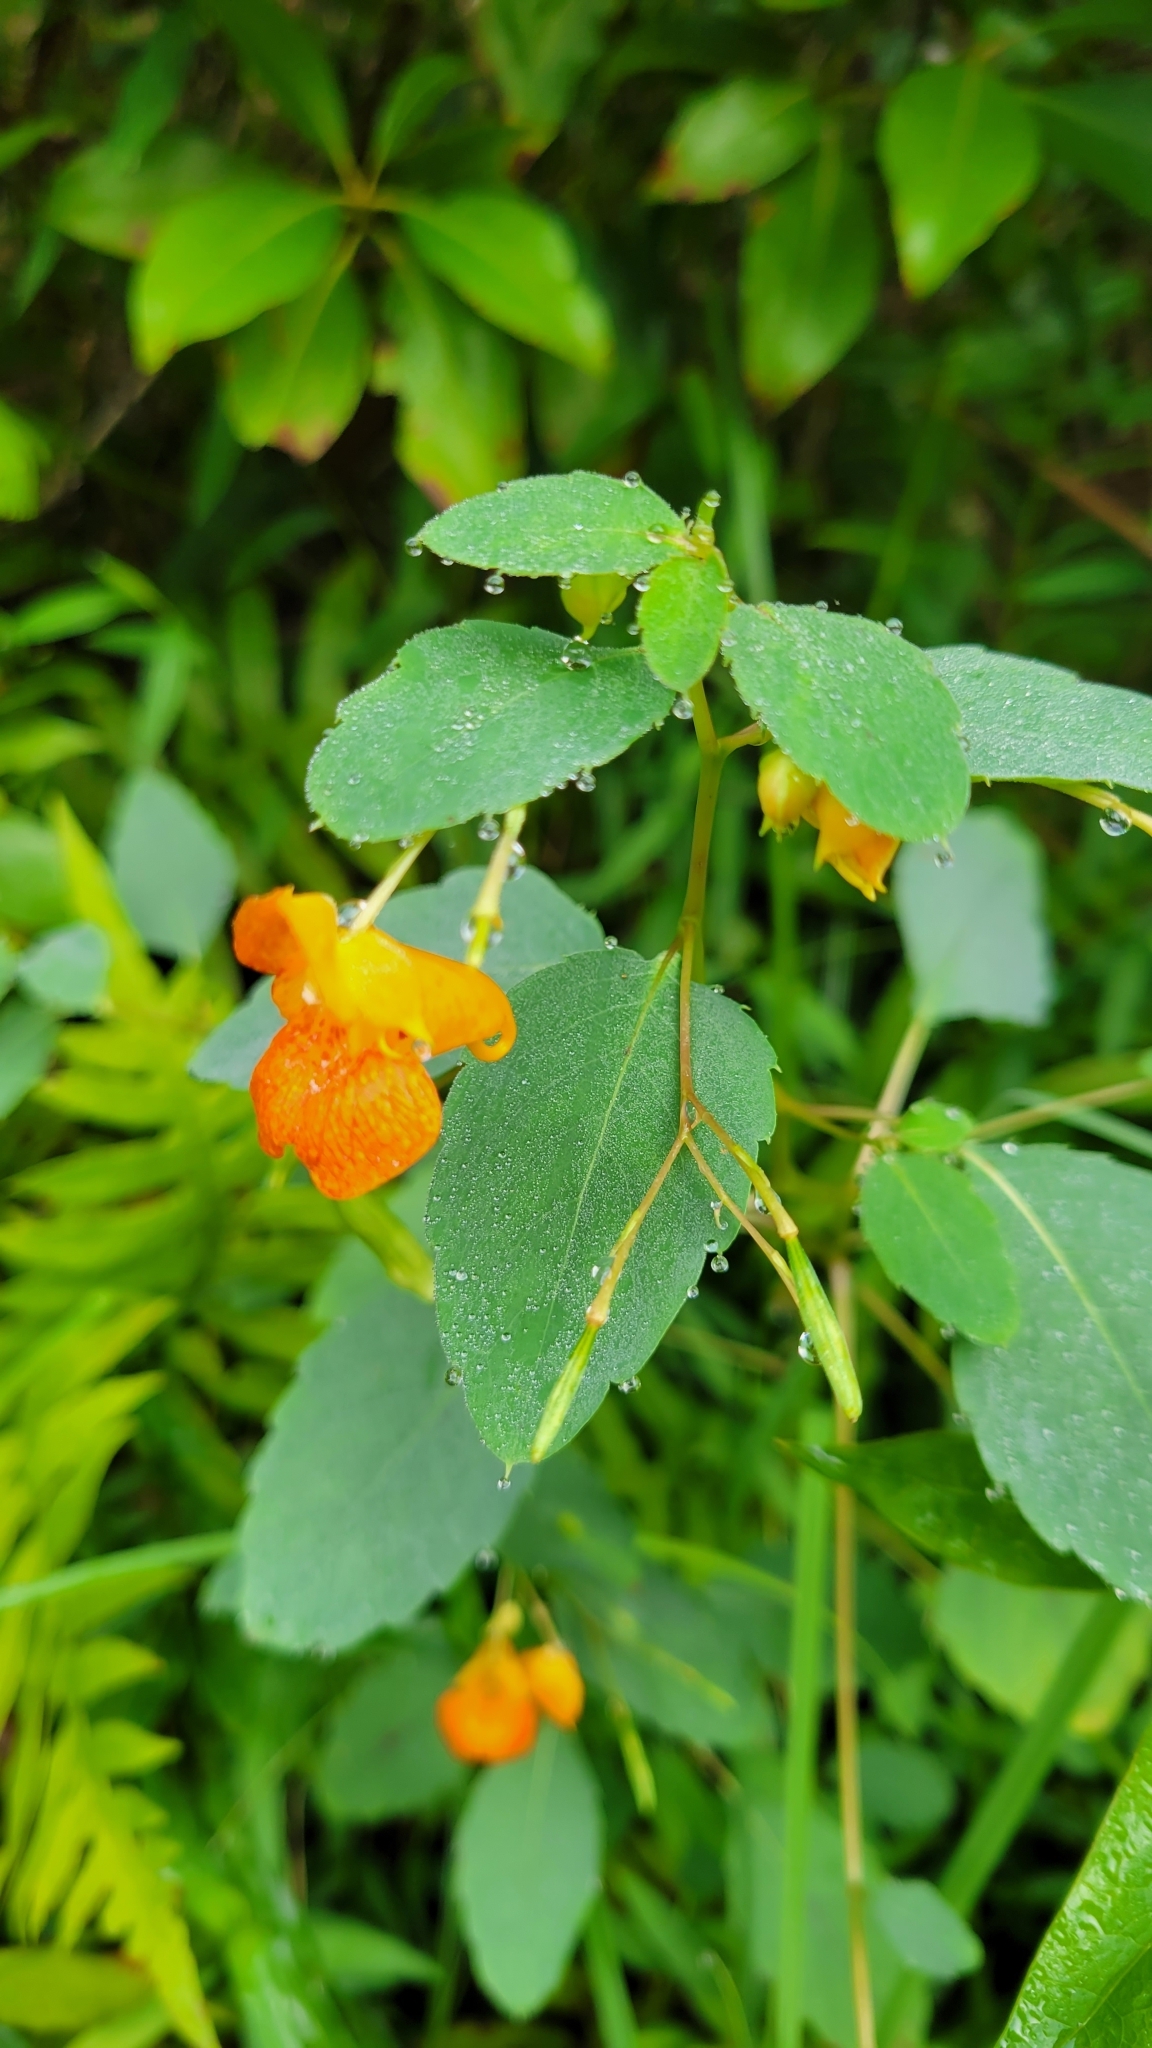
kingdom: Plantae
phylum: Tracheophyta
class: Magnoliopsida
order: Ericales
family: Balsaminaceae
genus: Impatiens
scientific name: Impatiens capensis
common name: Orange balsam
